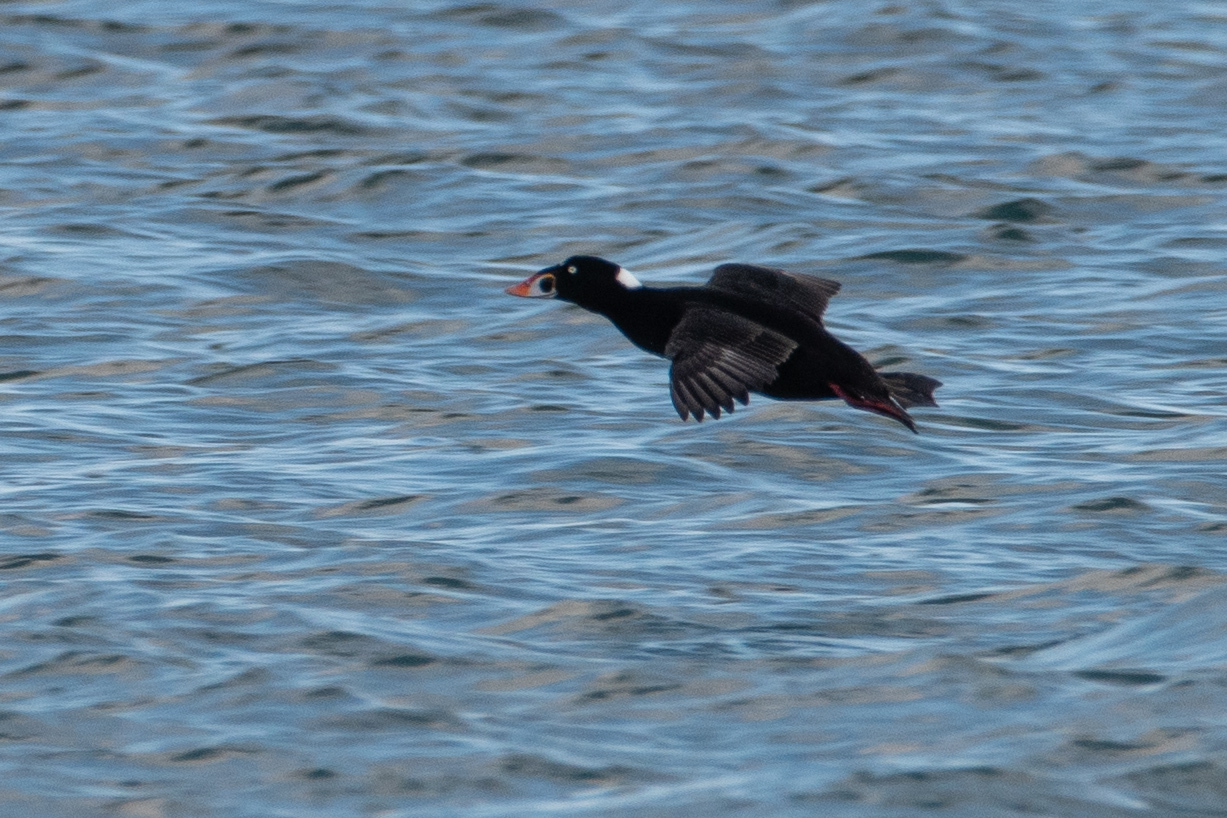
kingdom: Animalia
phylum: Chordata
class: Aves
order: Anseriformes
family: Anatidae
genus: Melanitta
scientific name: Melanitta perspicillata
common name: Surf scoter
